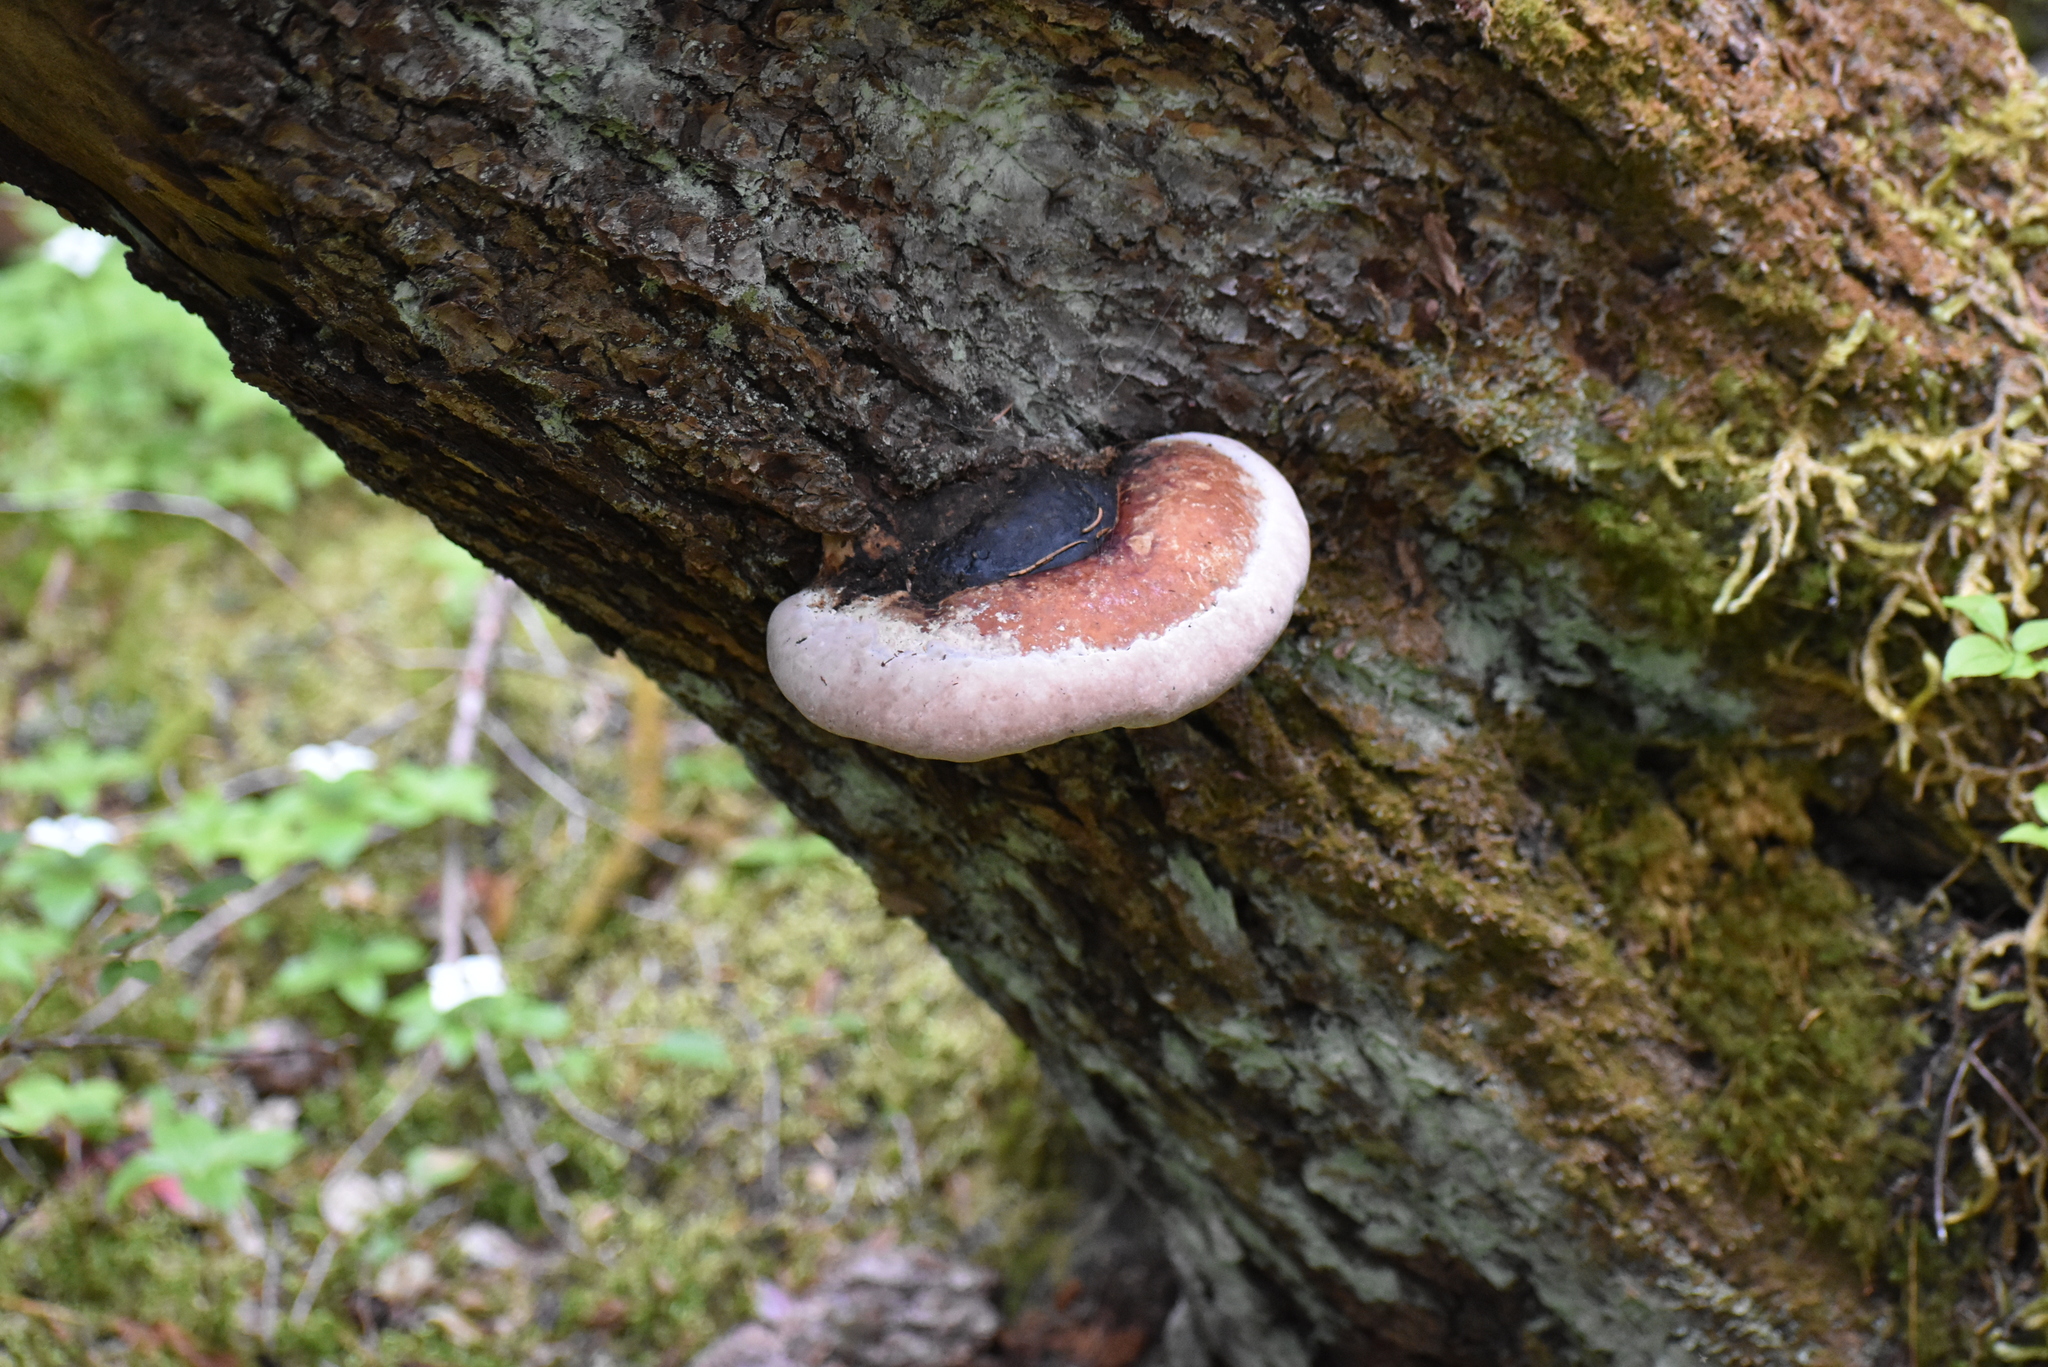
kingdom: Fungi
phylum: Basidiomycota
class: Agaricomycetes
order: Polyporales
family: Fomitopsidaceae
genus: Fomitopsis
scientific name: Fomitopsis mounceae
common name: Northern red belt
